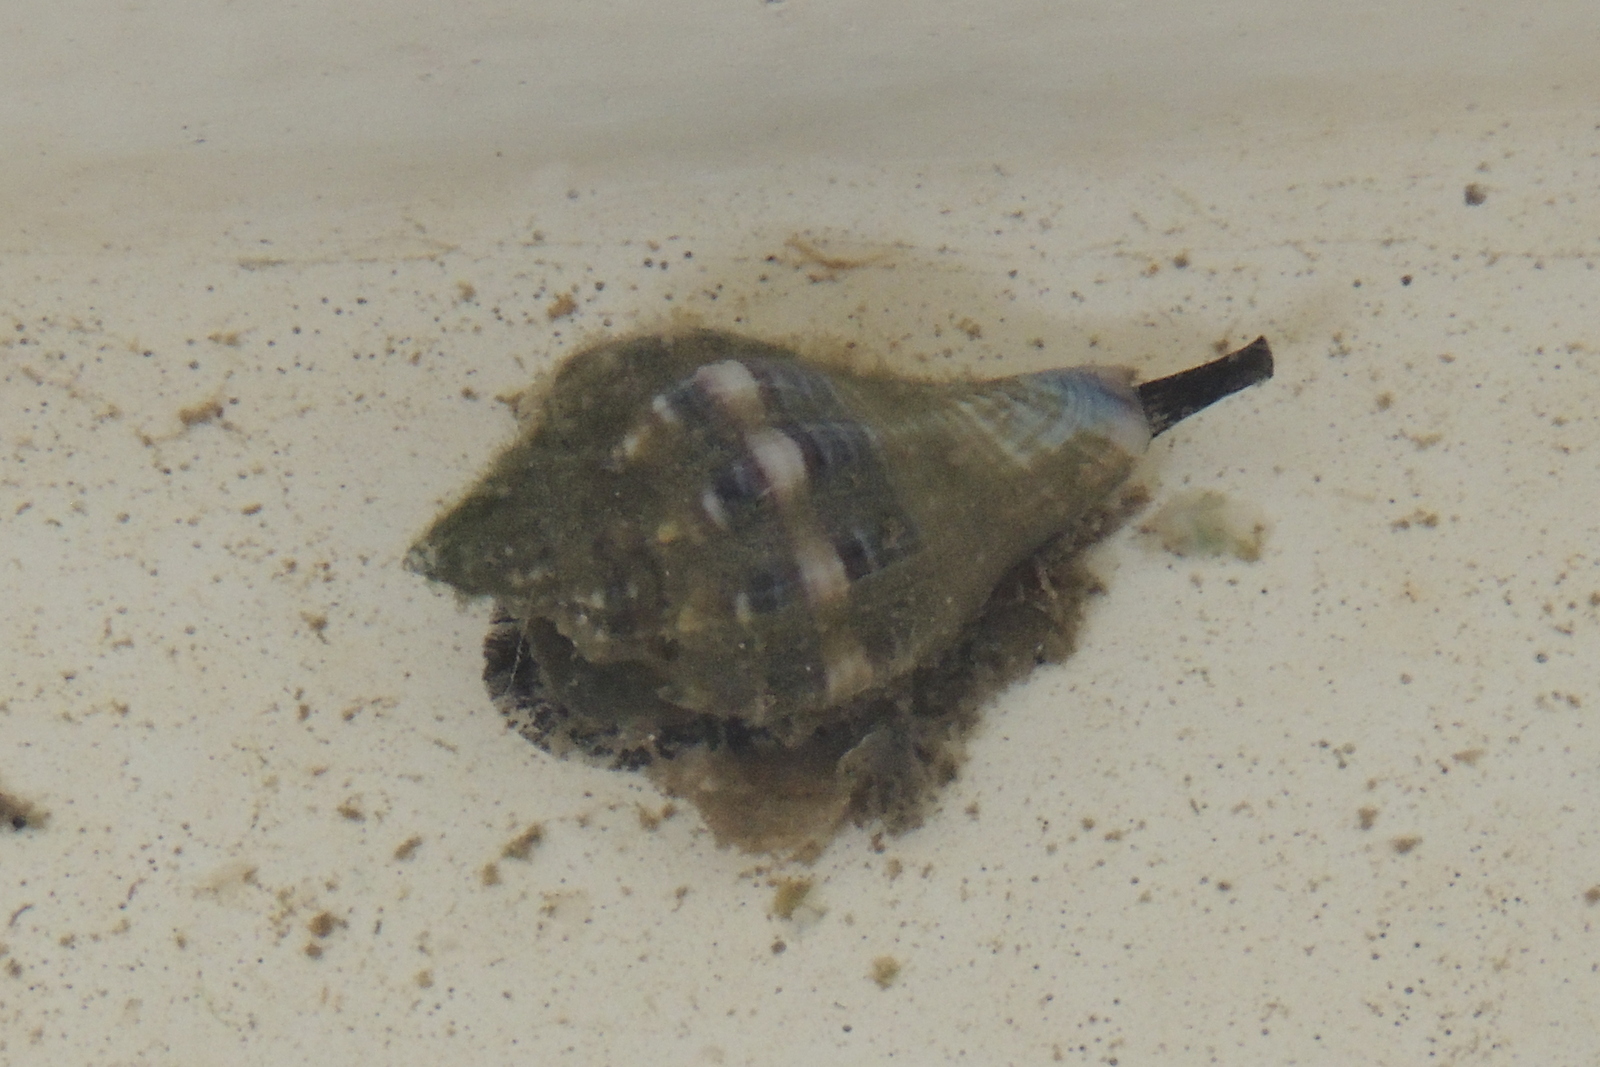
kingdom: Animalia
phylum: Mollusca
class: Gastropoda
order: Neogastropoda
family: Melongenidae
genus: Melongena
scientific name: Melongena corona
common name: American crown conch
